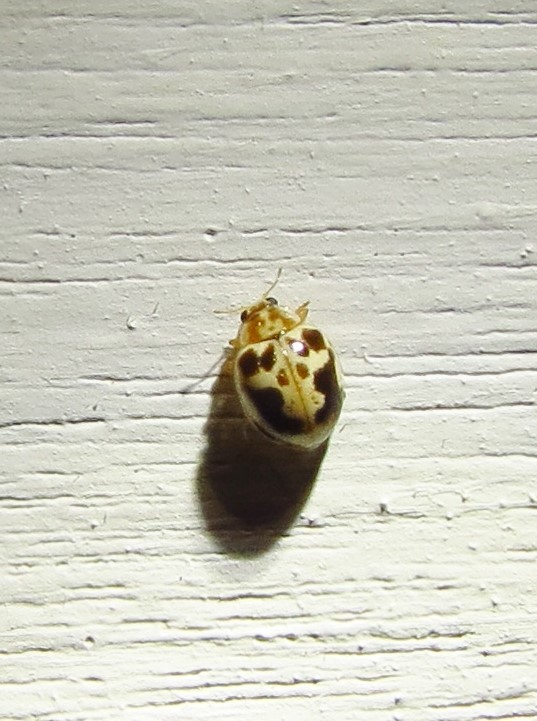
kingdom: Animalia
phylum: Arthropoda
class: Insecta
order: Coleoptera
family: Coccinellidae
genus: Psyllobora
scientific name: Psyllobora renifer
